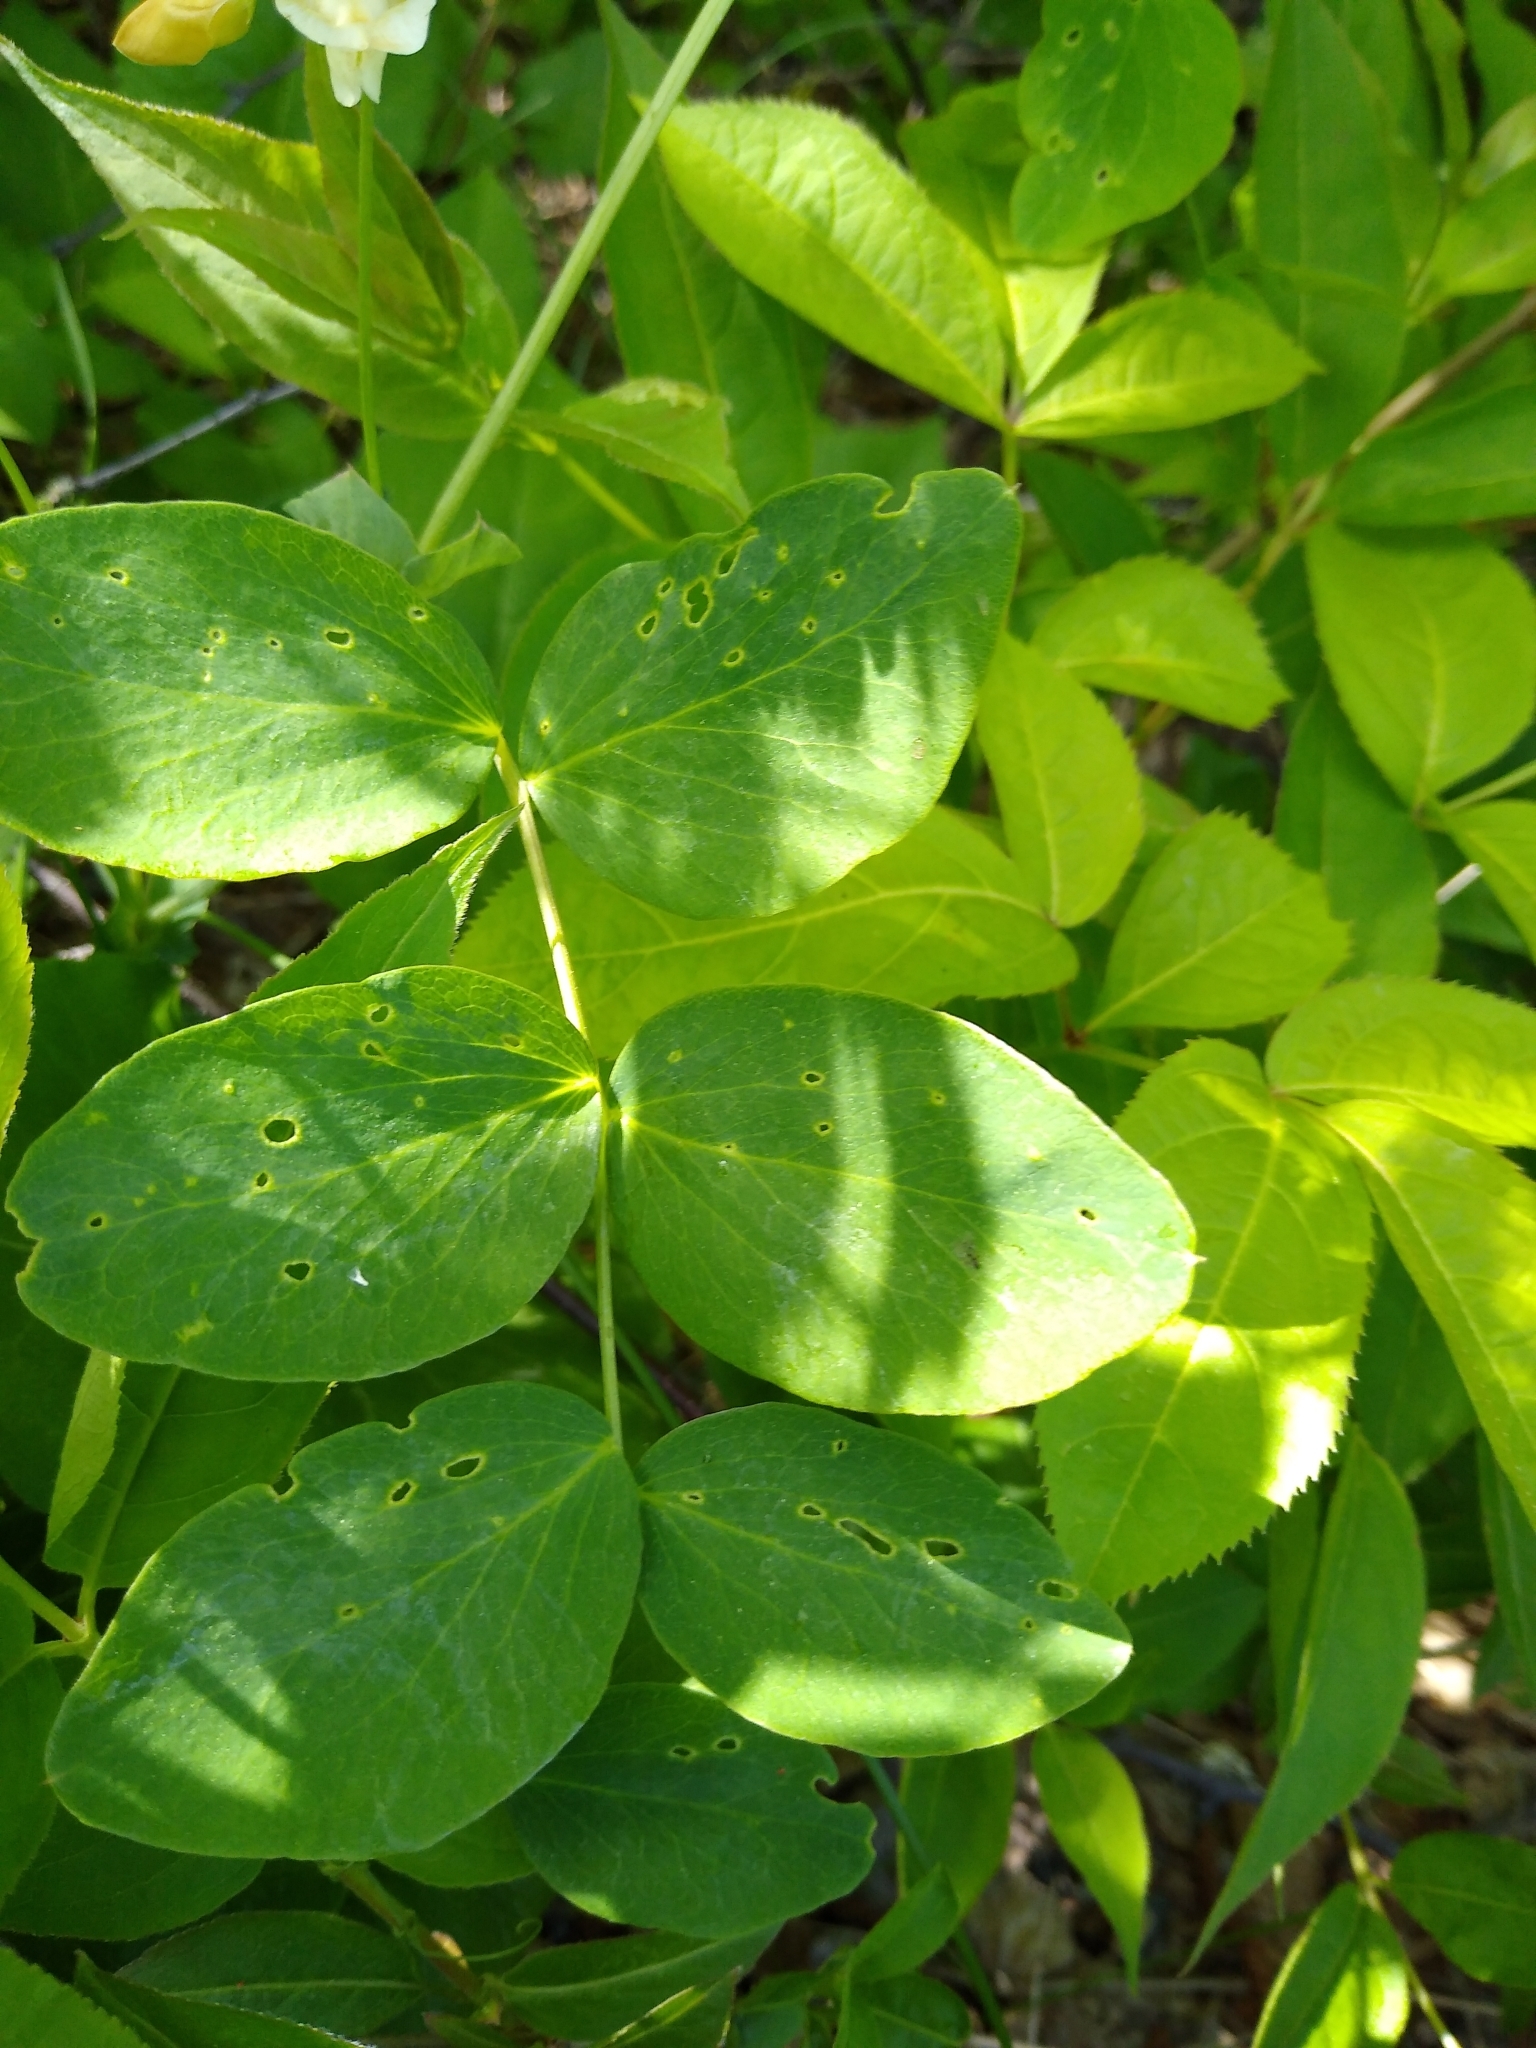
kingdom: Plantae
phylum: Tracheophyta
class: Magnoliopsida
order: Fabales
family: Fabaceae
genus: Lathyrus
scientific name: Lathyrus ochroleucus
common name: Pale vetchling
